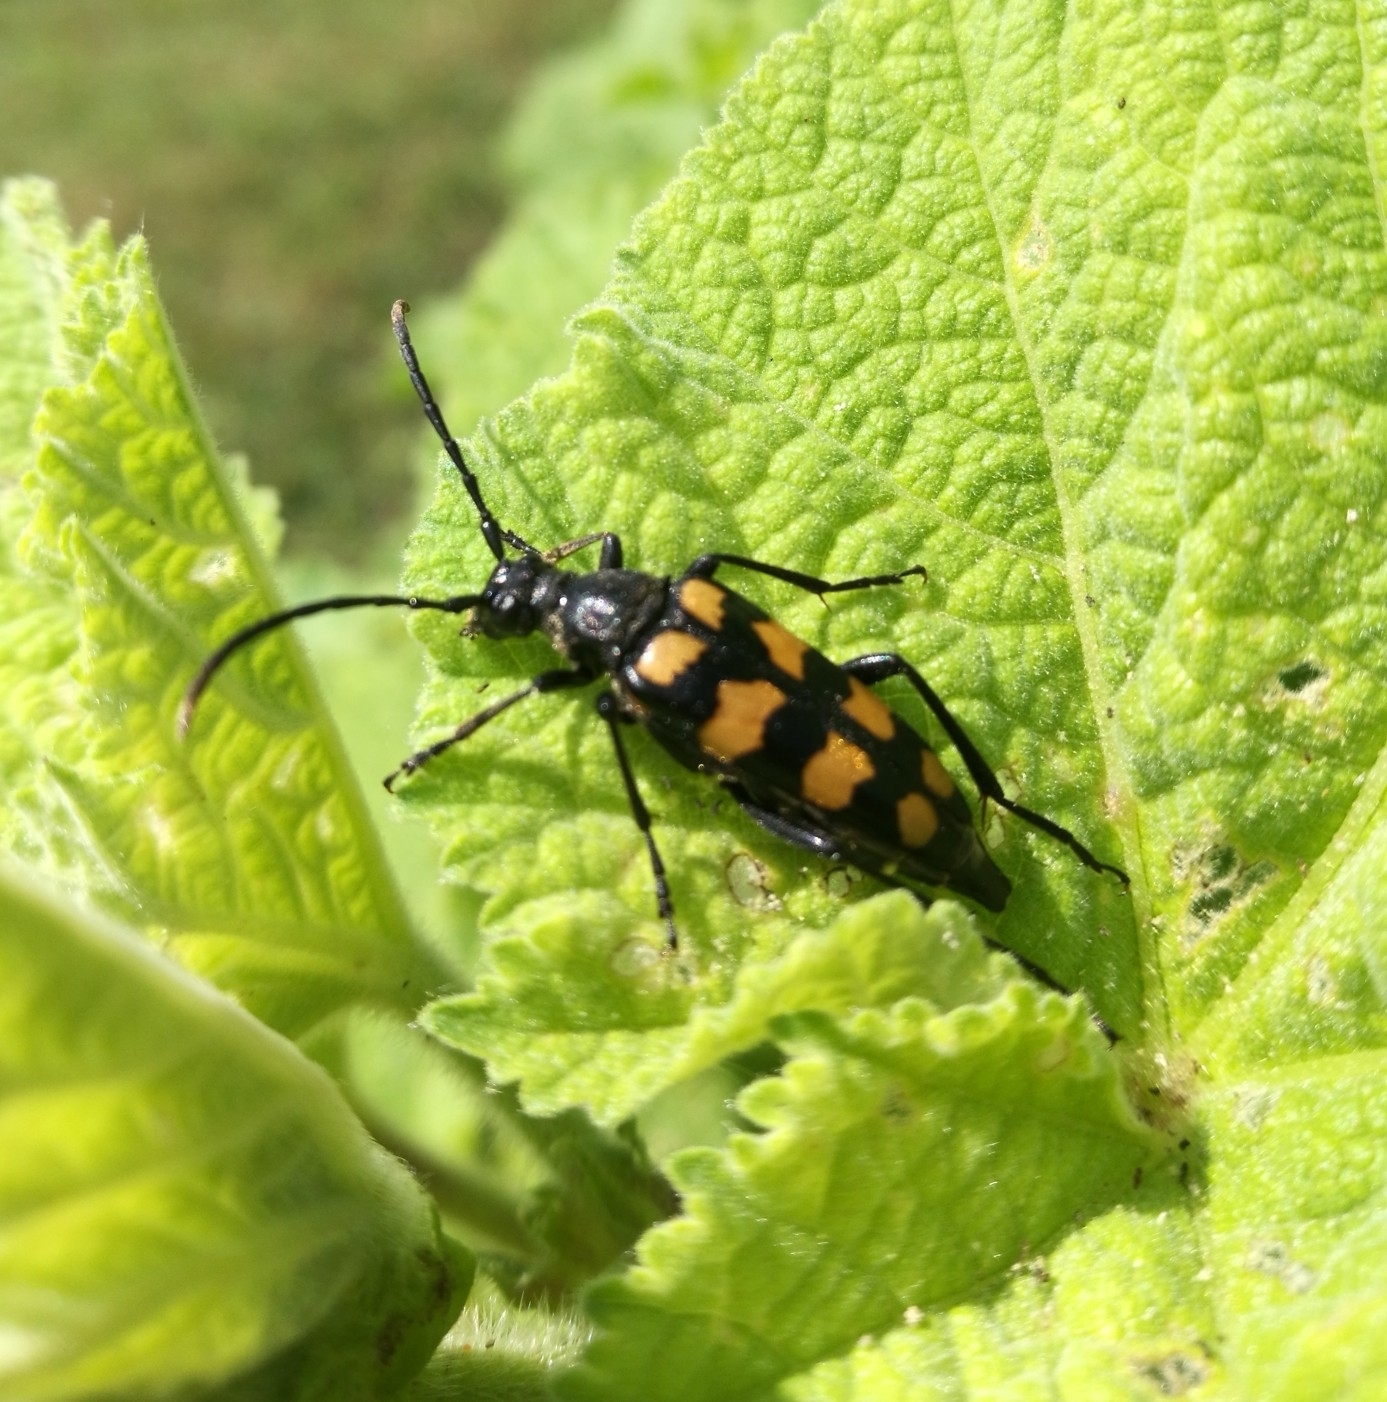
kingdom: Animalia
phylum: Arthropoda
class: Insecta
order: Coleoptera
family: Cerambycidae
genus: Leptura
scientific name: Leptura quadrifasciata
